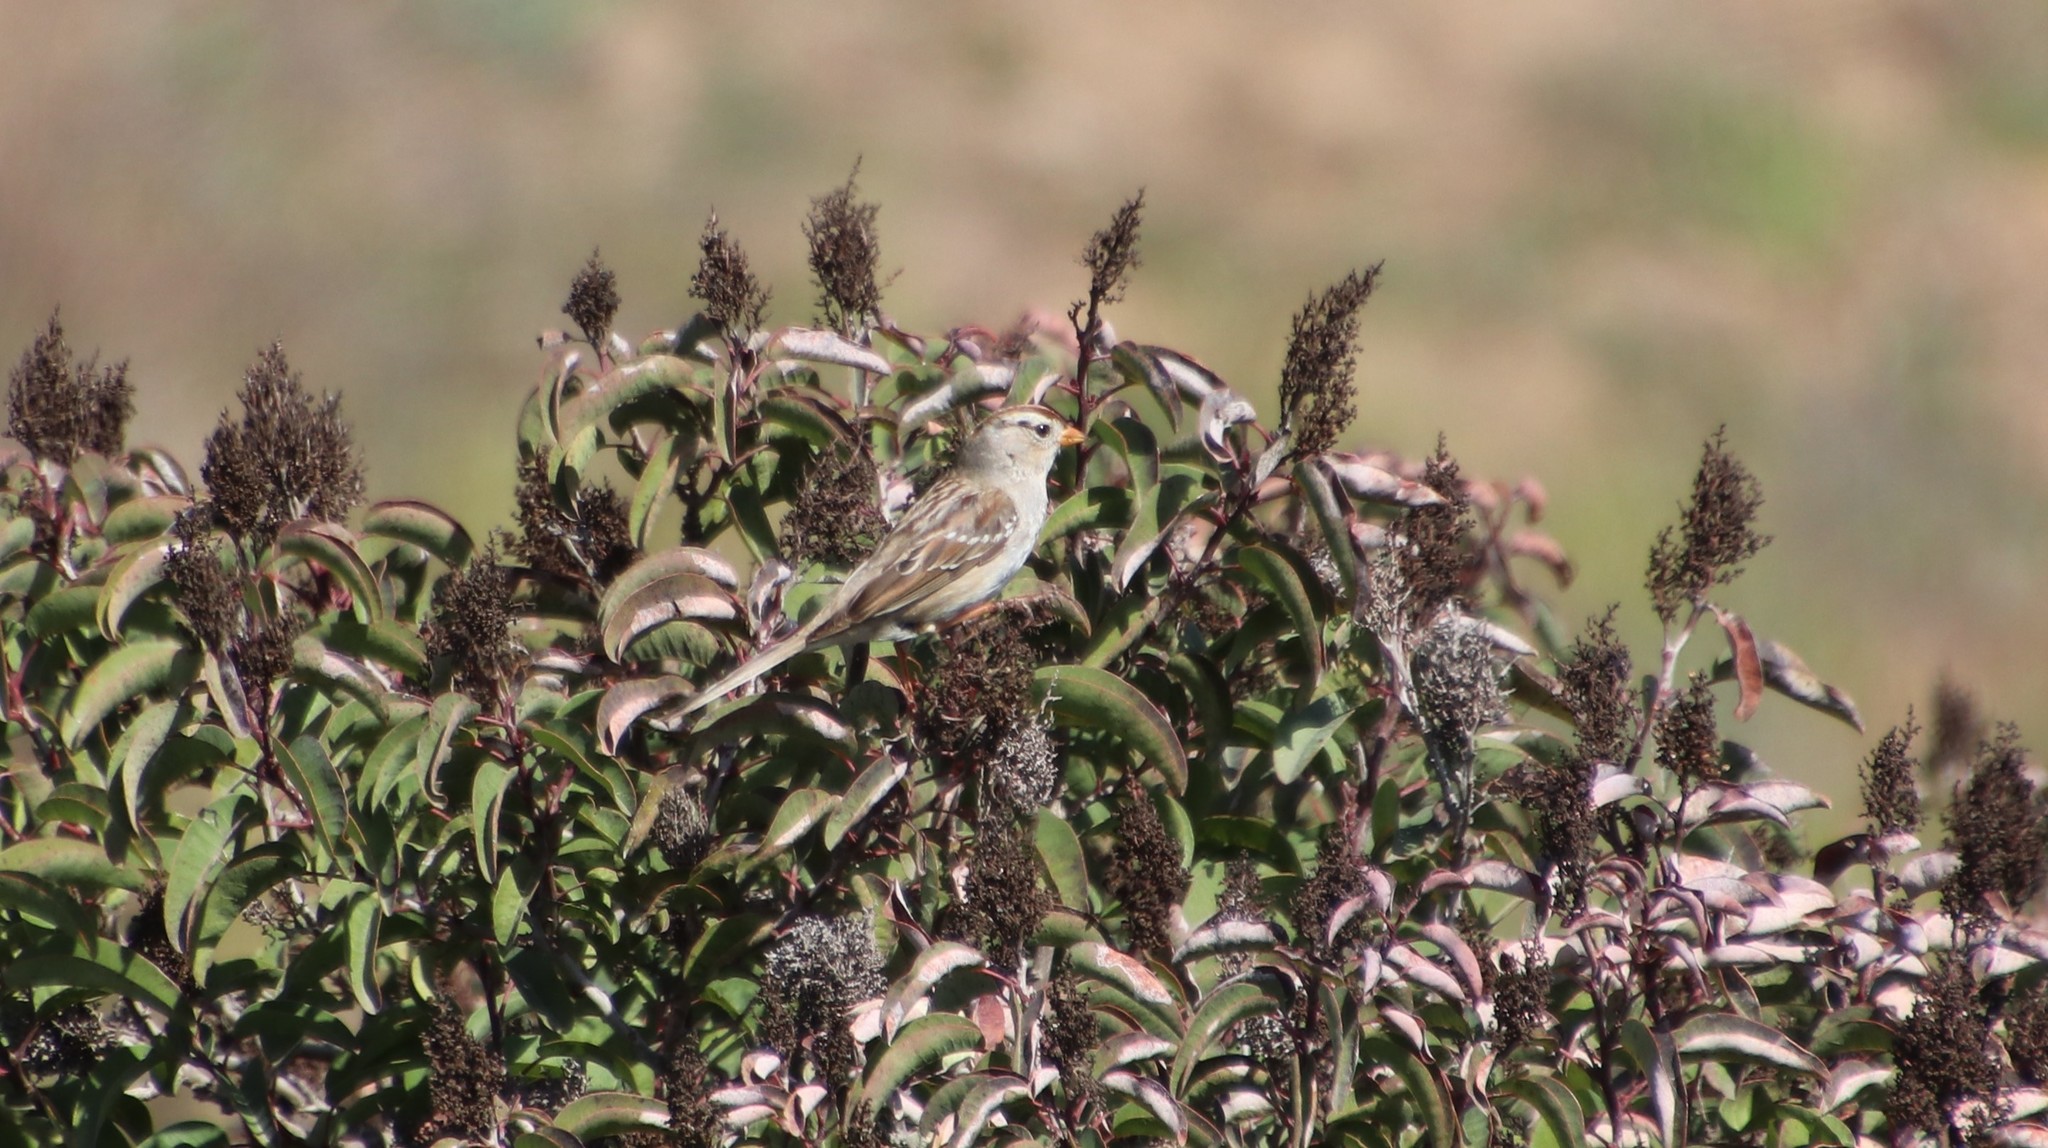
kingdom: Animalia
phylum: Chordata
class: Aves
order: Passeriformes
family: Passerellidae
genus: Zonotrichia
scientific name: Zonotrichia leucophrys
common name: White-crowned sparrow
